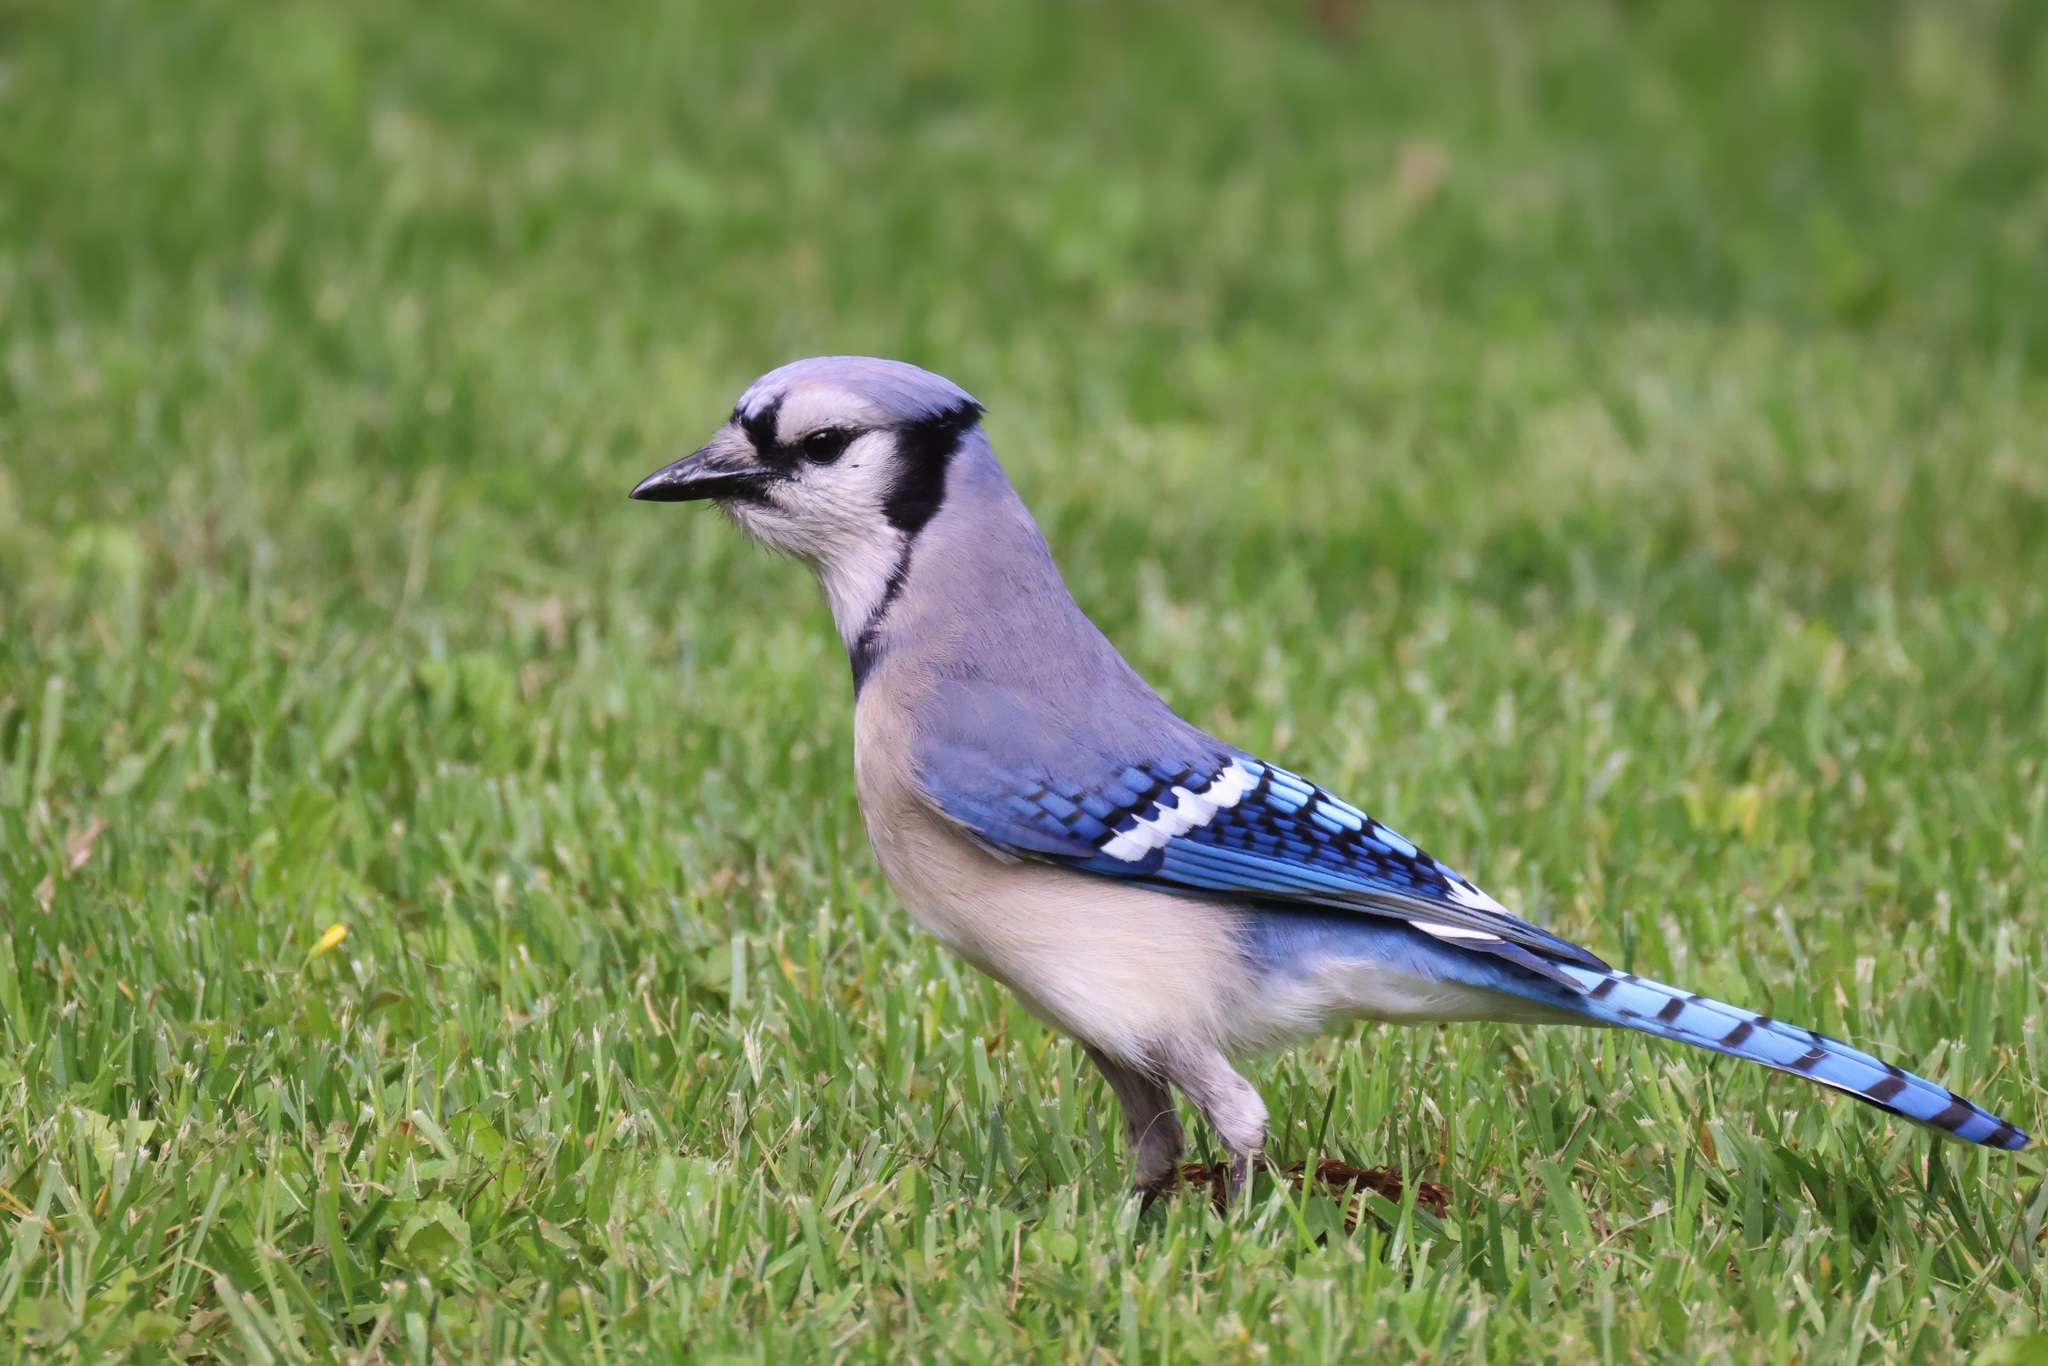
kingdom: Animalia
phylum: Chordata
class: Aves
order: Passeriformes
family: Corvidae
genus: Cyanocitta
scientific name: Cyanocitta cristata
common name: Blue jay
